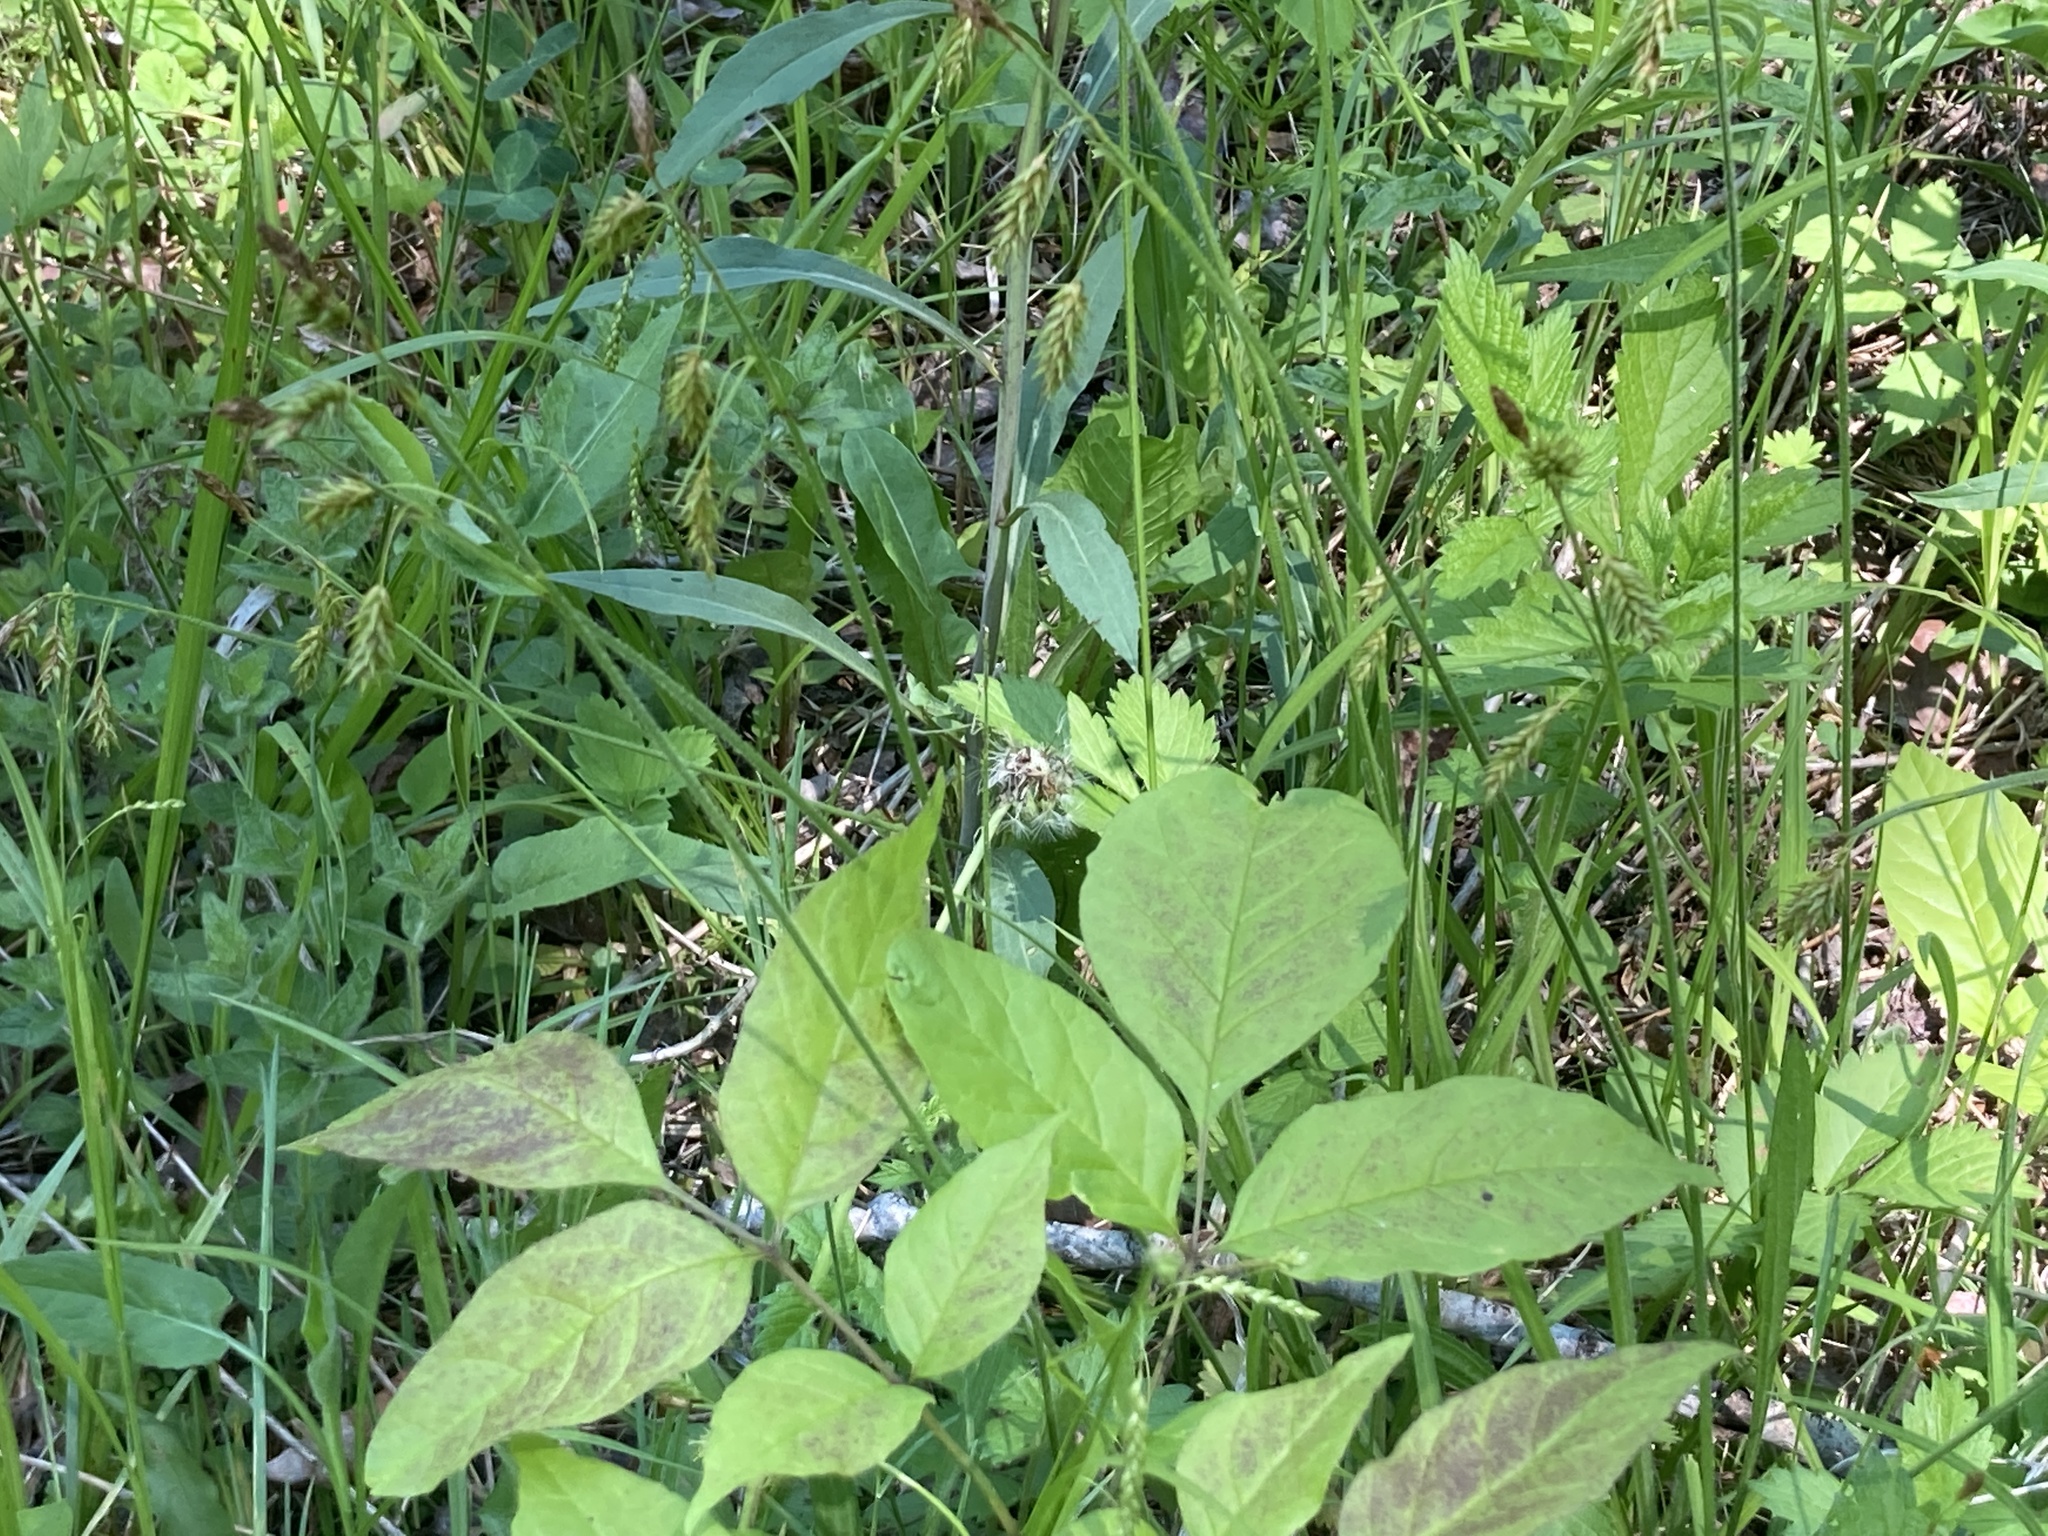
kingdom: Plantae
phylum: Tracheophyta
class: Liliopsida
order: Poales
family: Cyperaceae
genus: Carex
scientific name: Carex castanea
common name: Chestnut sedge
